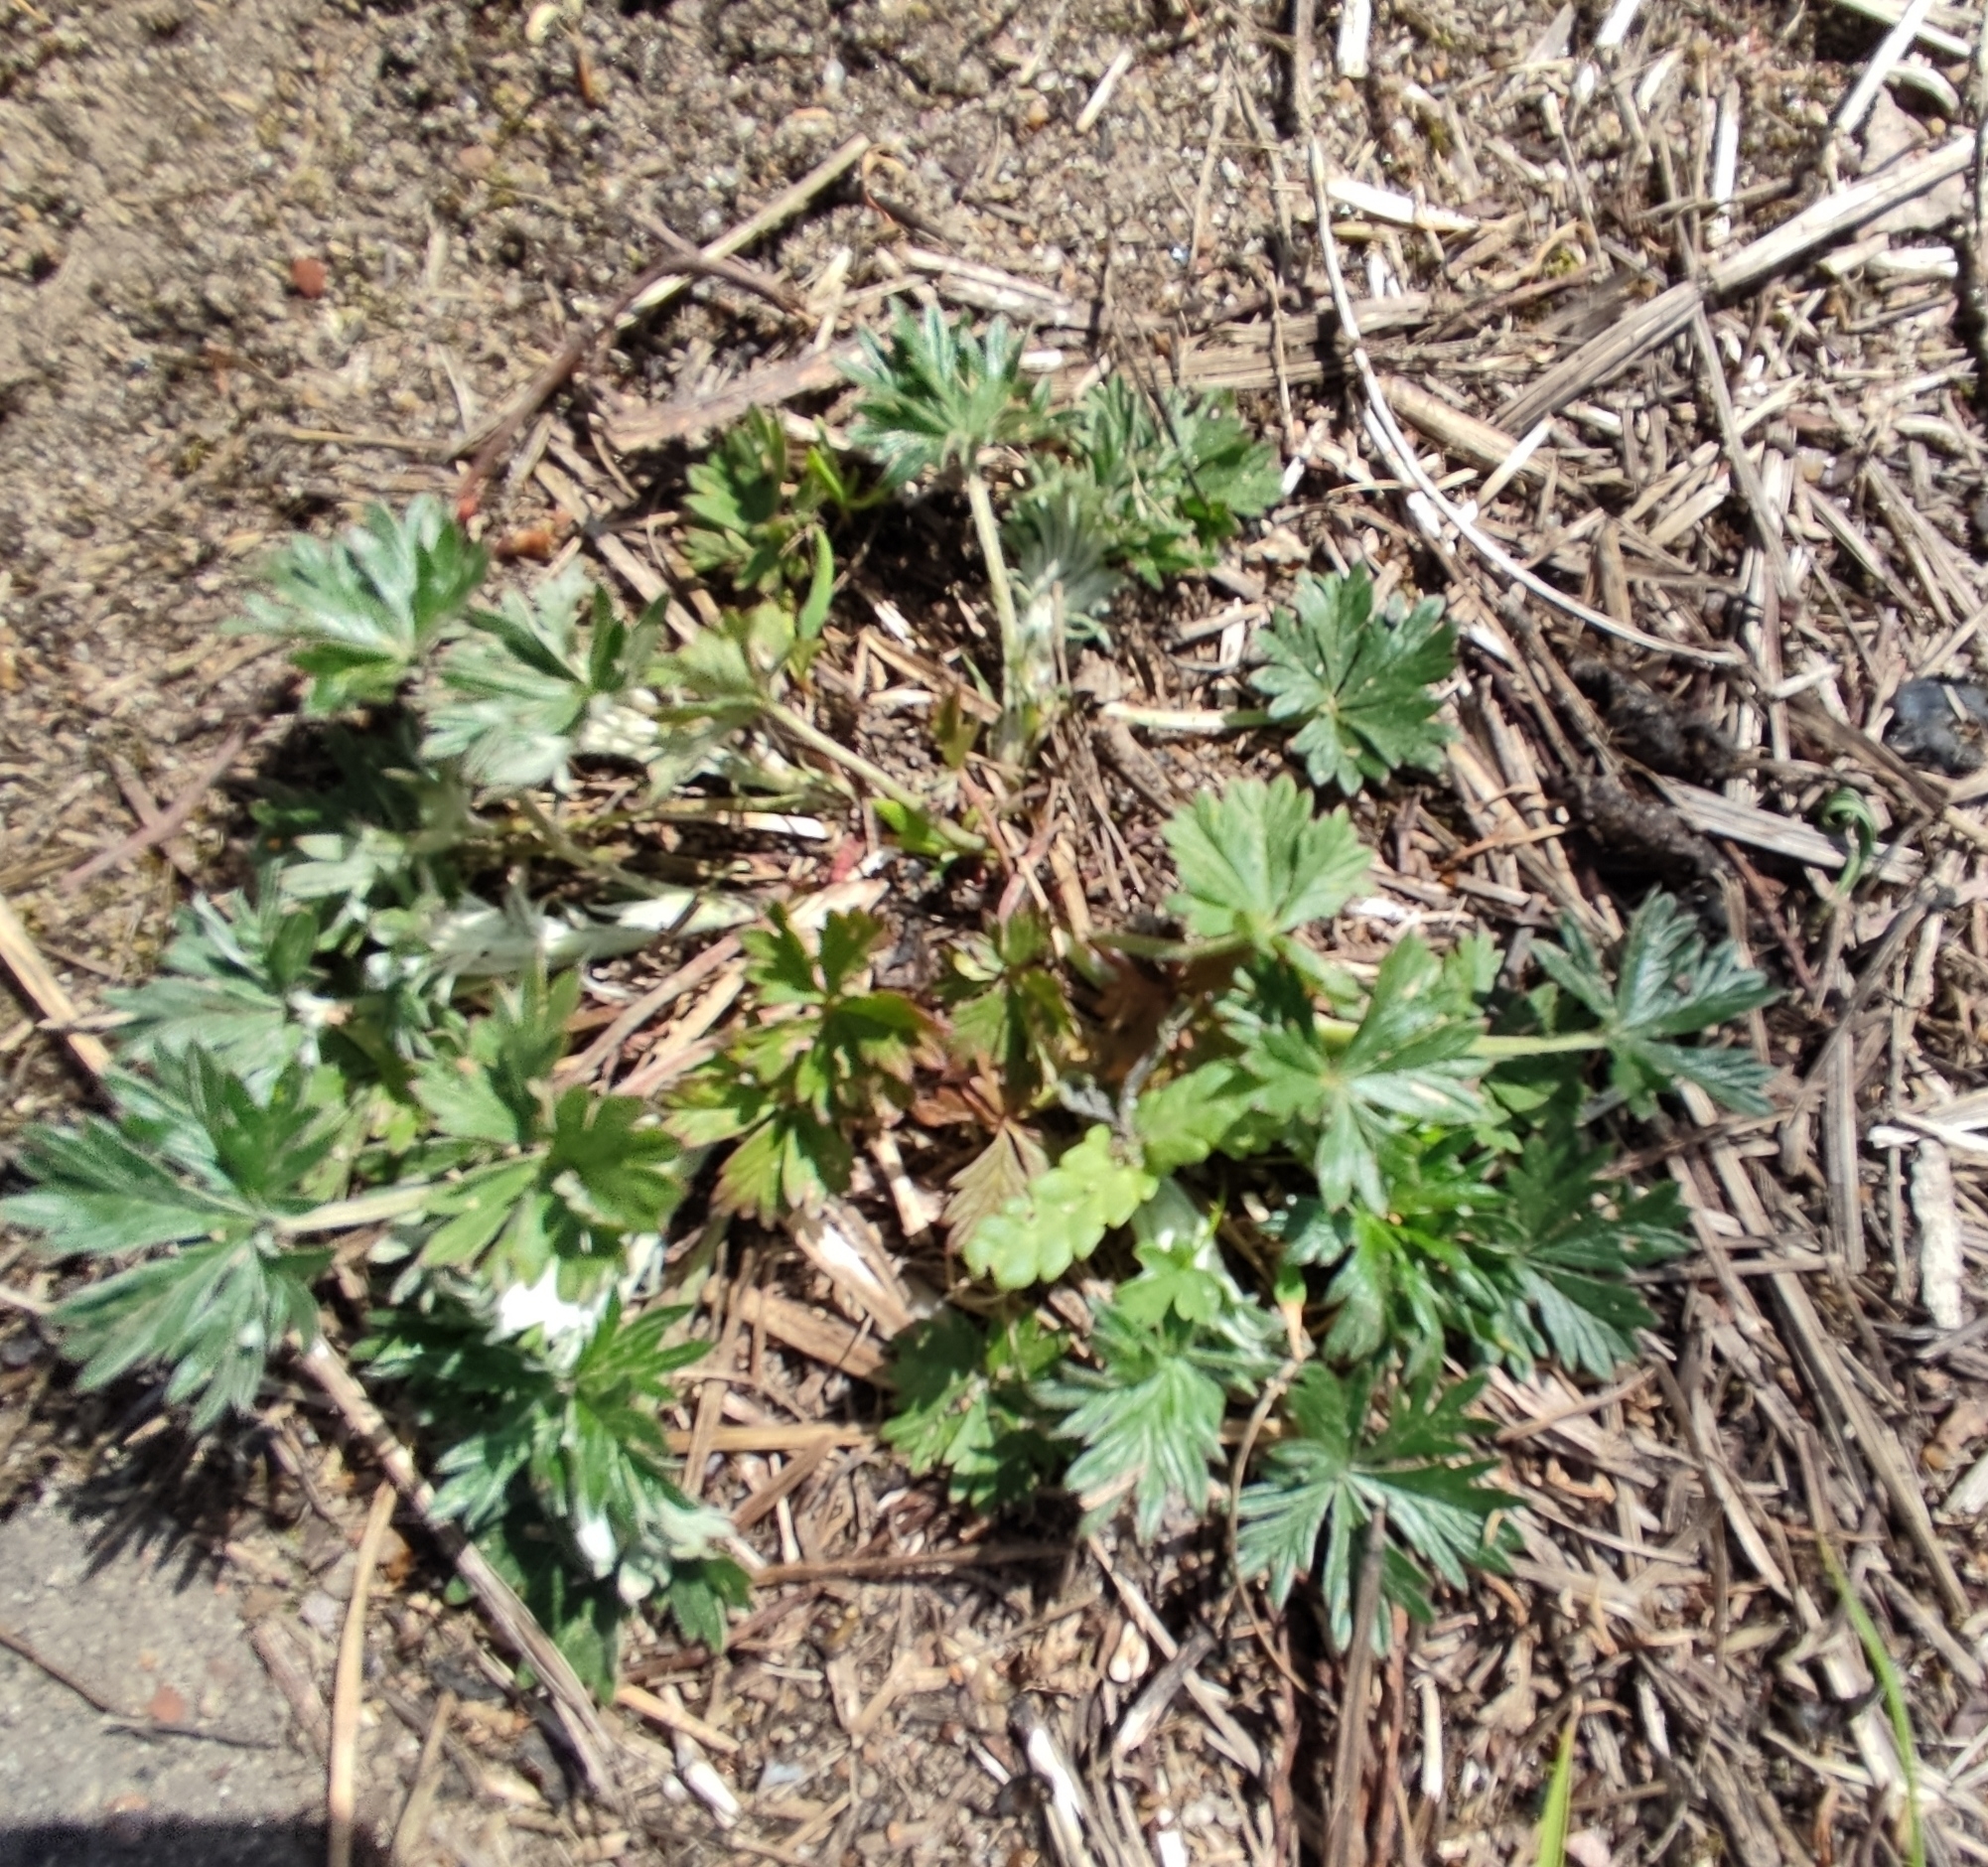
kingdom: Plantae
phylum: Tracheophyta
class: Magnoliopsida
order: Rosales
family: Rosaceae
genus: Potentilla
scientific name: Potentilla argentea
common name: Hoary cinquefoil
